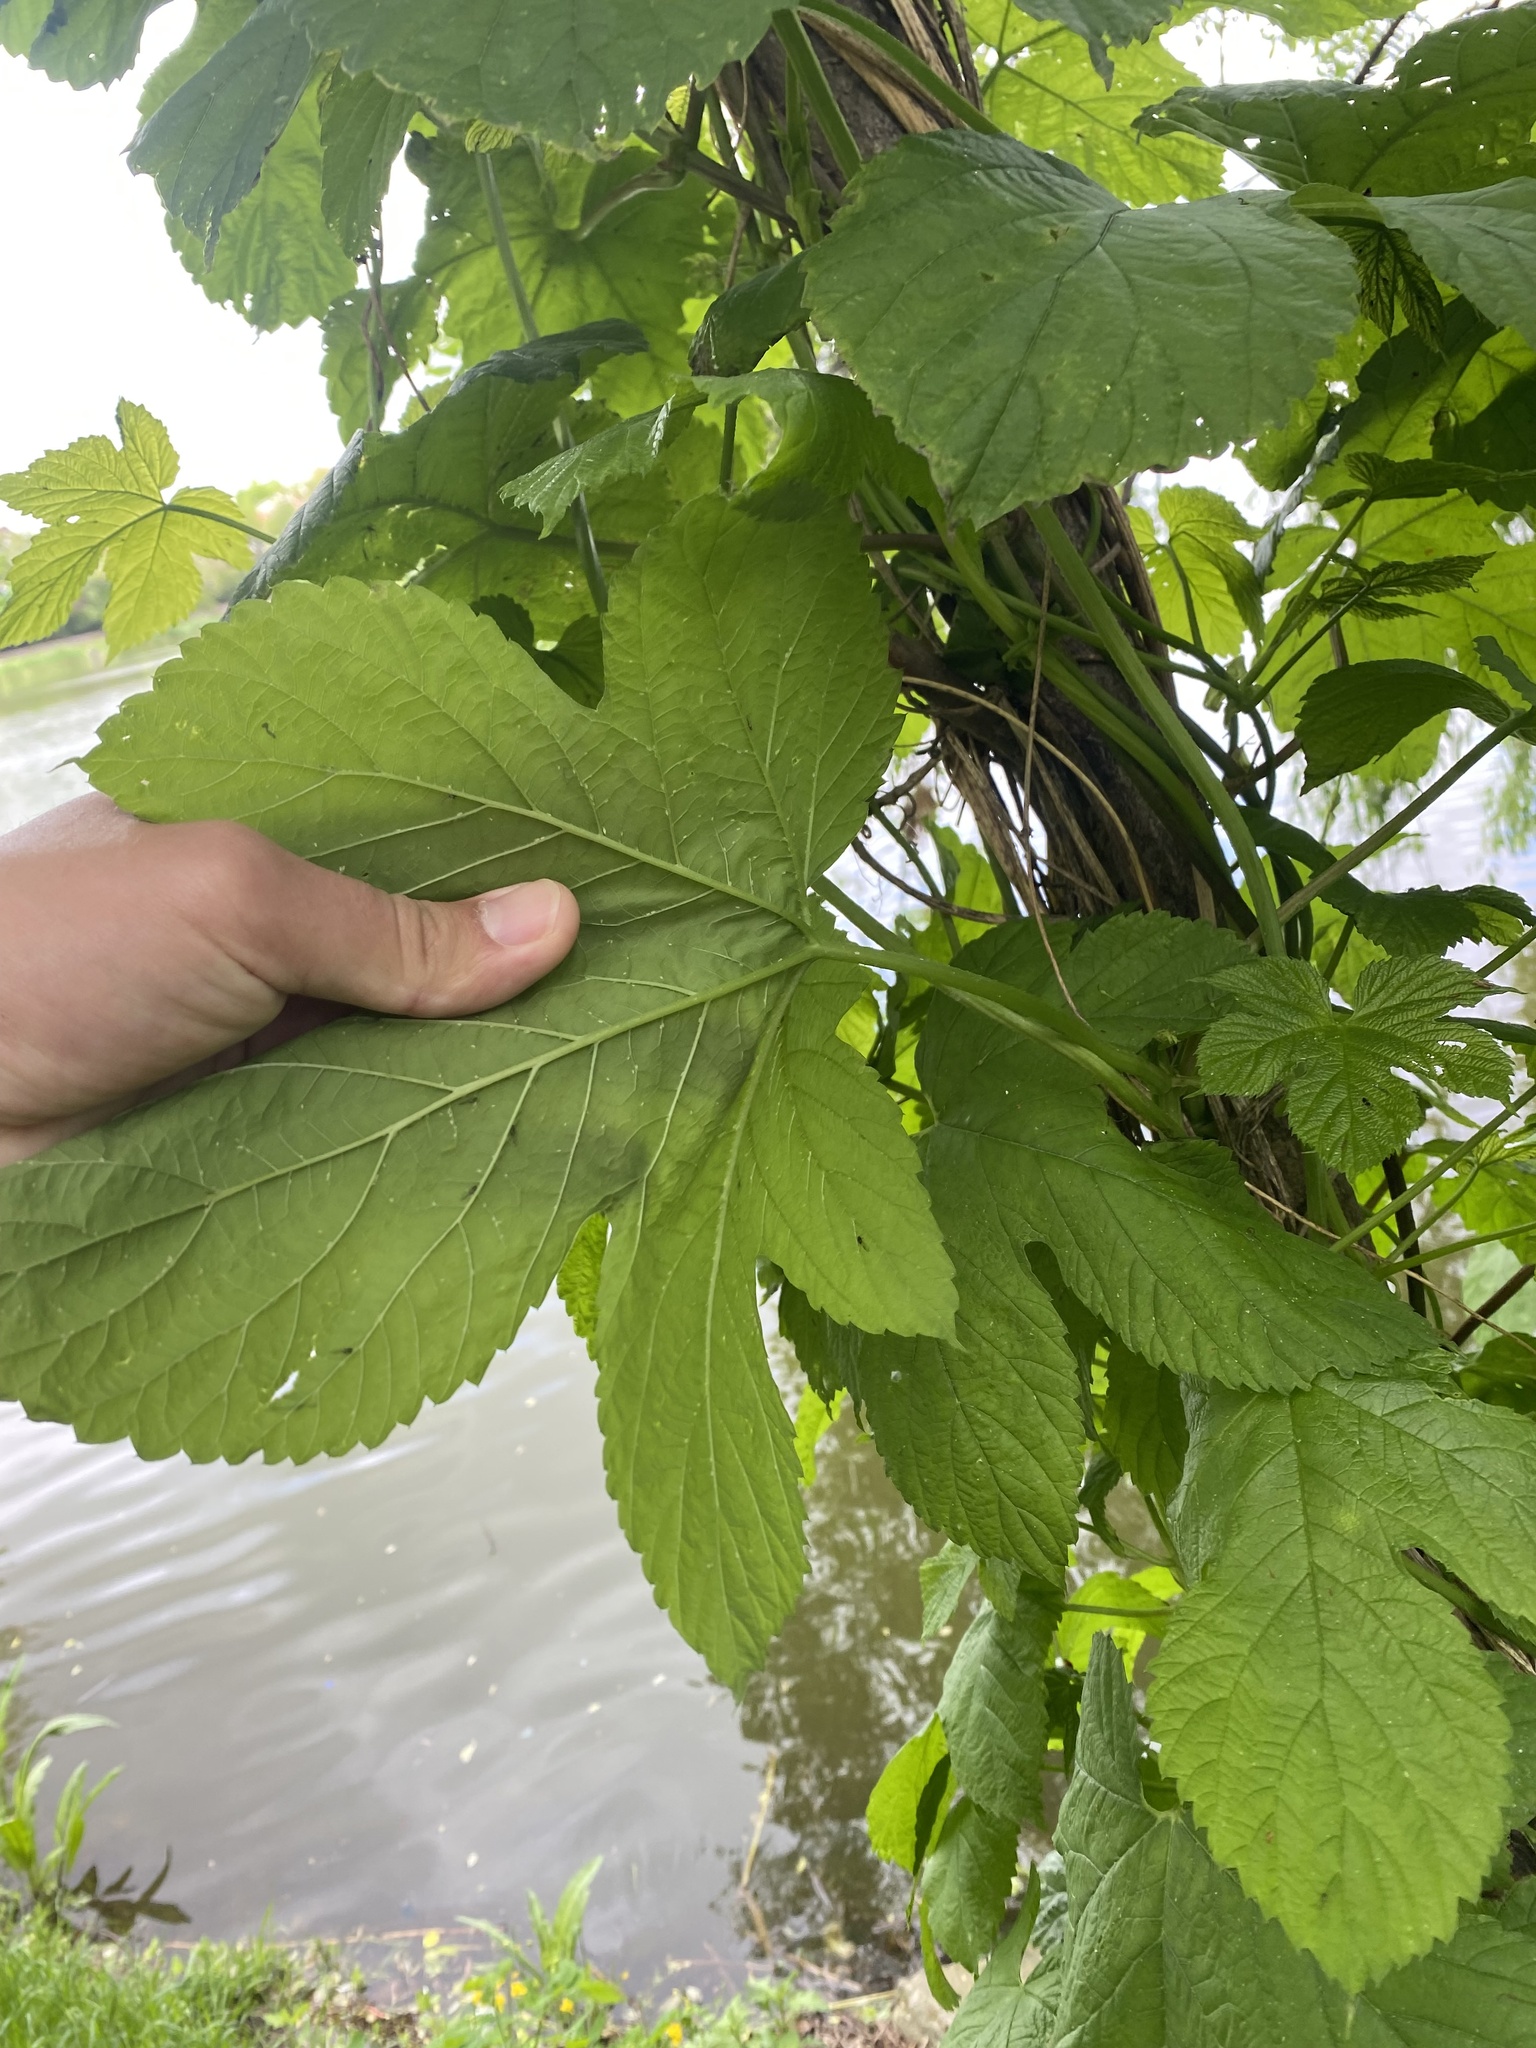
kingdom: Plantae
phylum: Tracheophyta
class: Magnoliopsida
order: Rosales
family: Cannabaceae
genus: Humulus
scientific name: Humulus lupulus
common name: Hop
